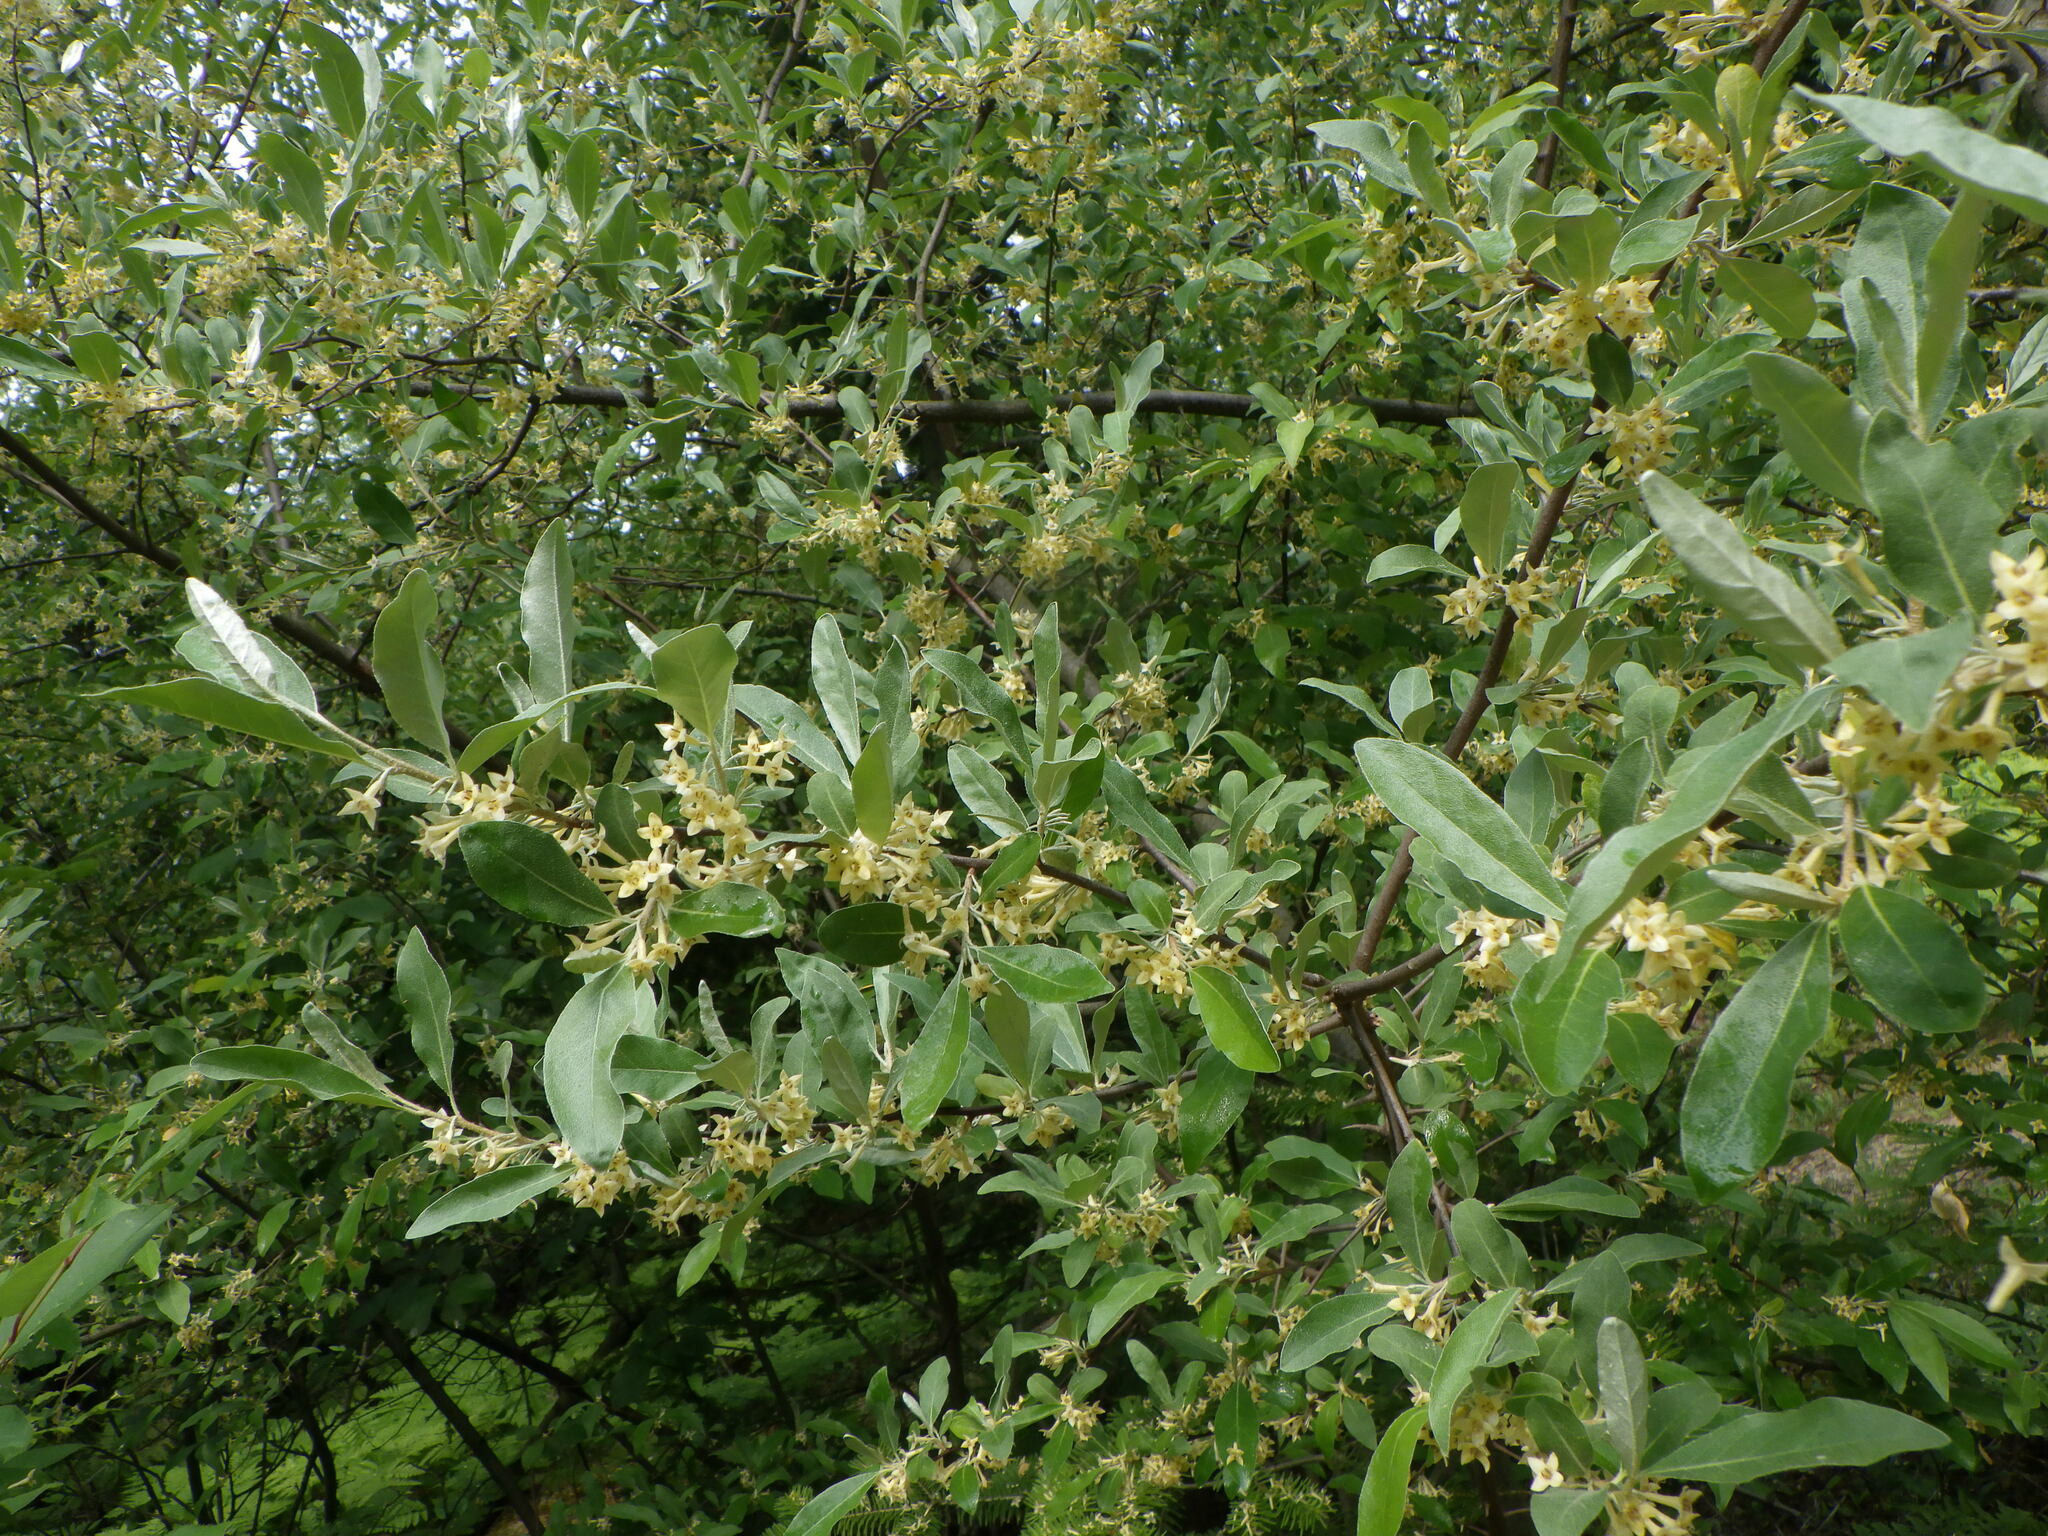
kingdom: Plantae
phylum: Tracheophyta
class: Magnoliopsida
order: Rosales
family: Elaeagnaceae
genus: Elaeagnus
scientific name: Elaeagnus umbellata
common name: Autumn olive
